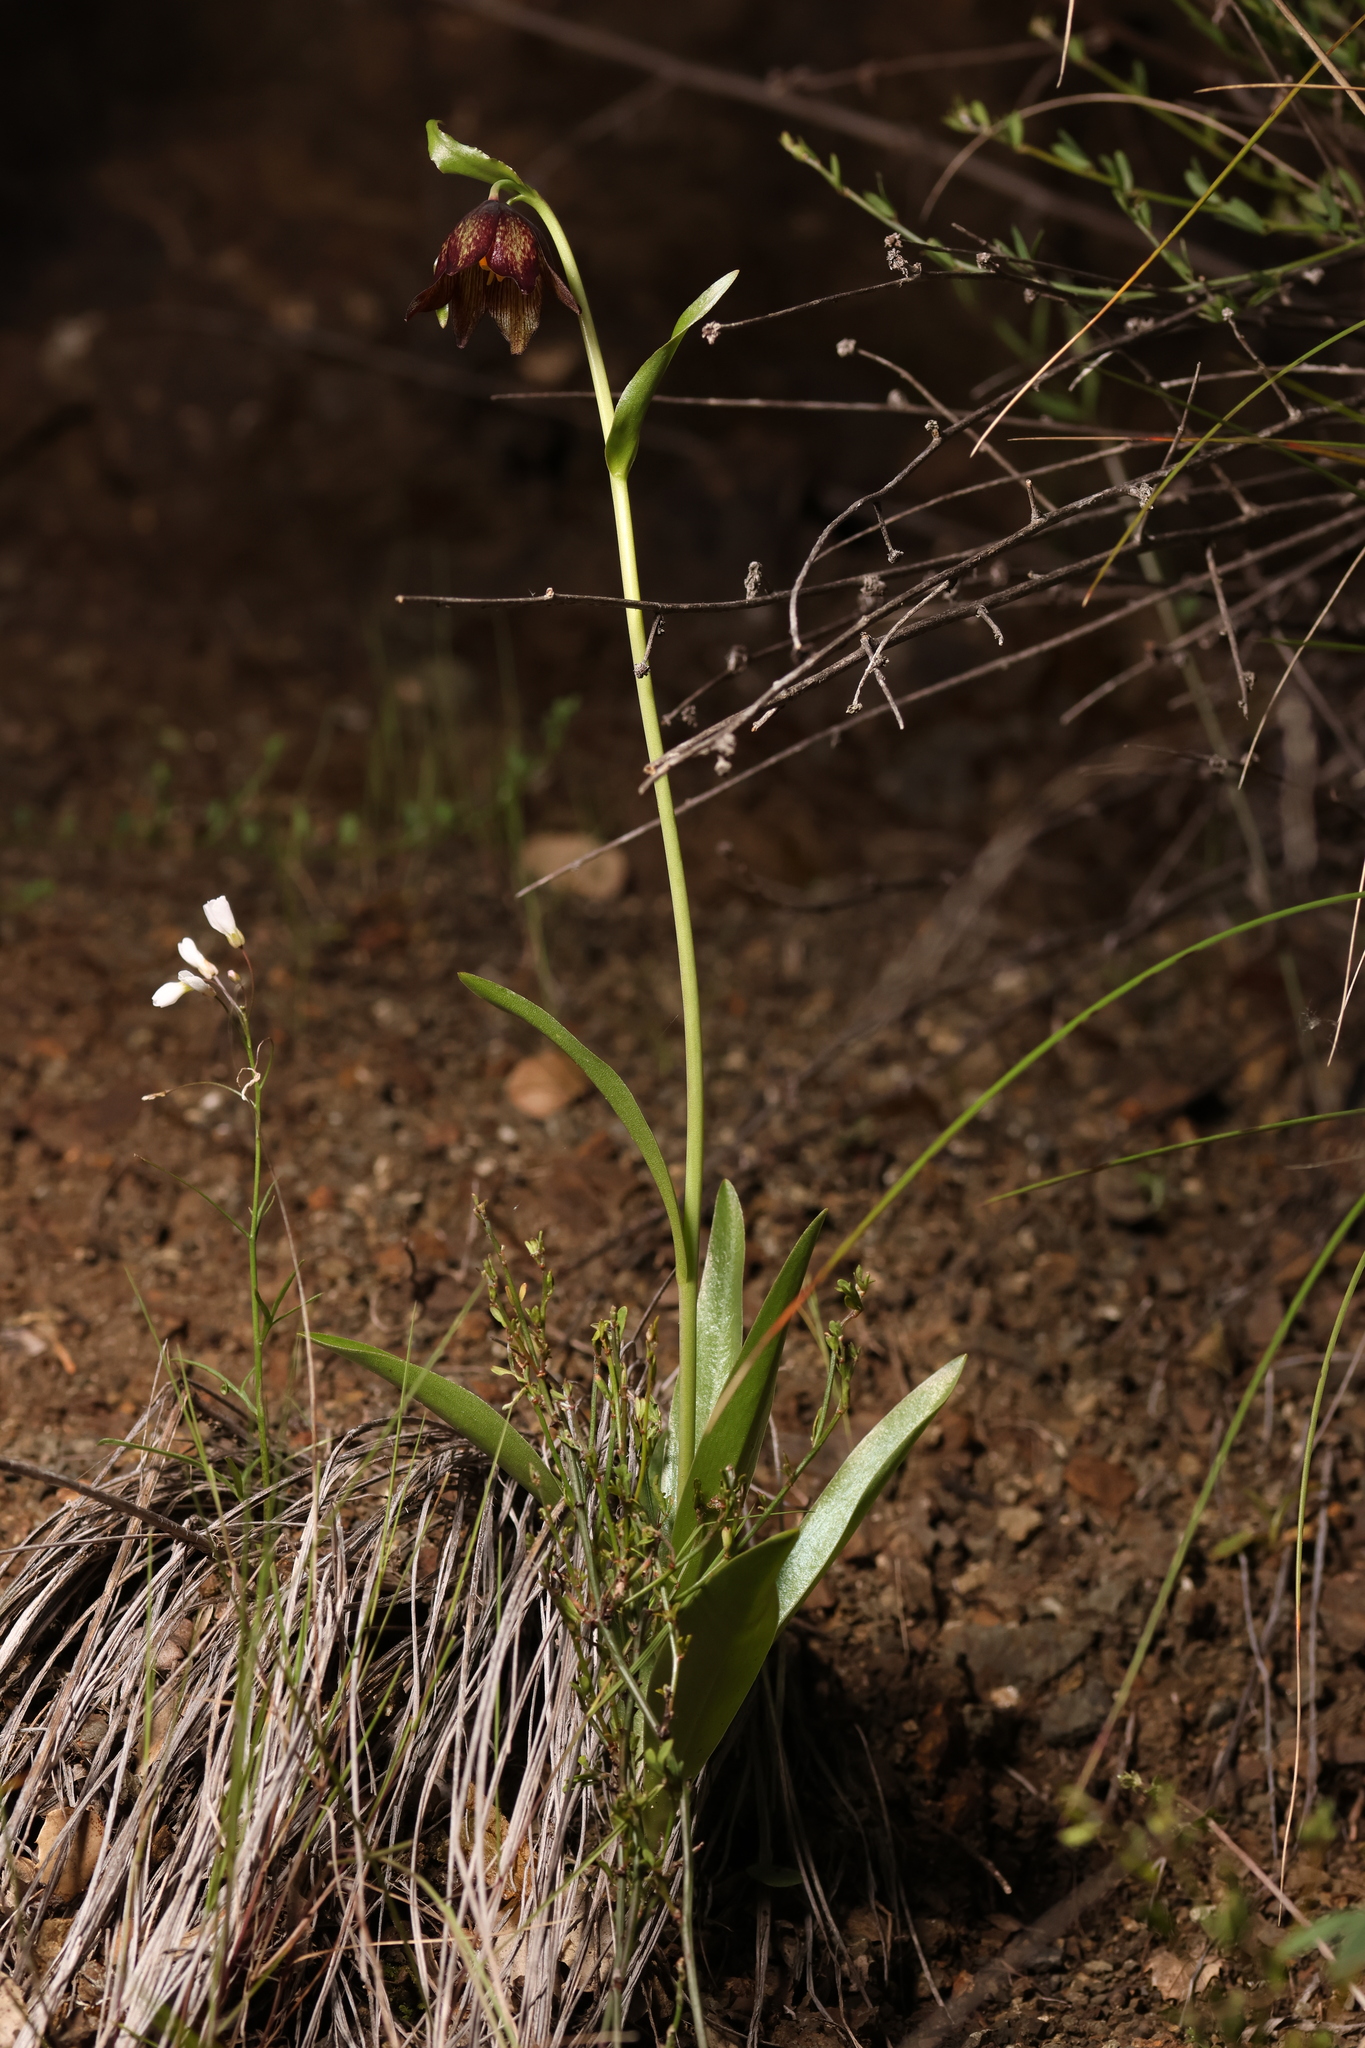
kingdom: Plantae
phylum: Tracheophyta
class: Liliopsida
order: Liliales
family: Liliaceae
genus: Fritillaria
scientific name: Fritillaria biflora
